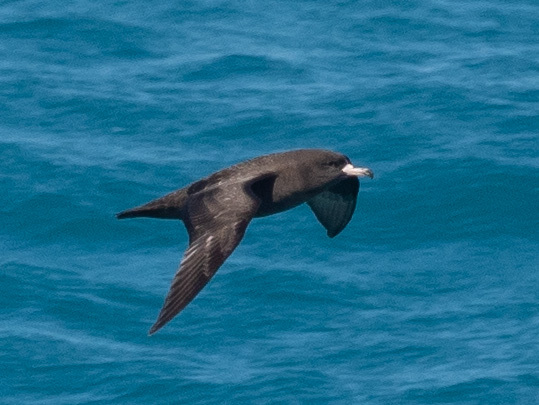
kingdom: Animalia
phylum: Chordata
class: Aves
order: Procellariiformes
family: Procellariidae
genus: Puffinus
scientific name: Puffinus carneipes
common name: Flesh-footed shearwater
